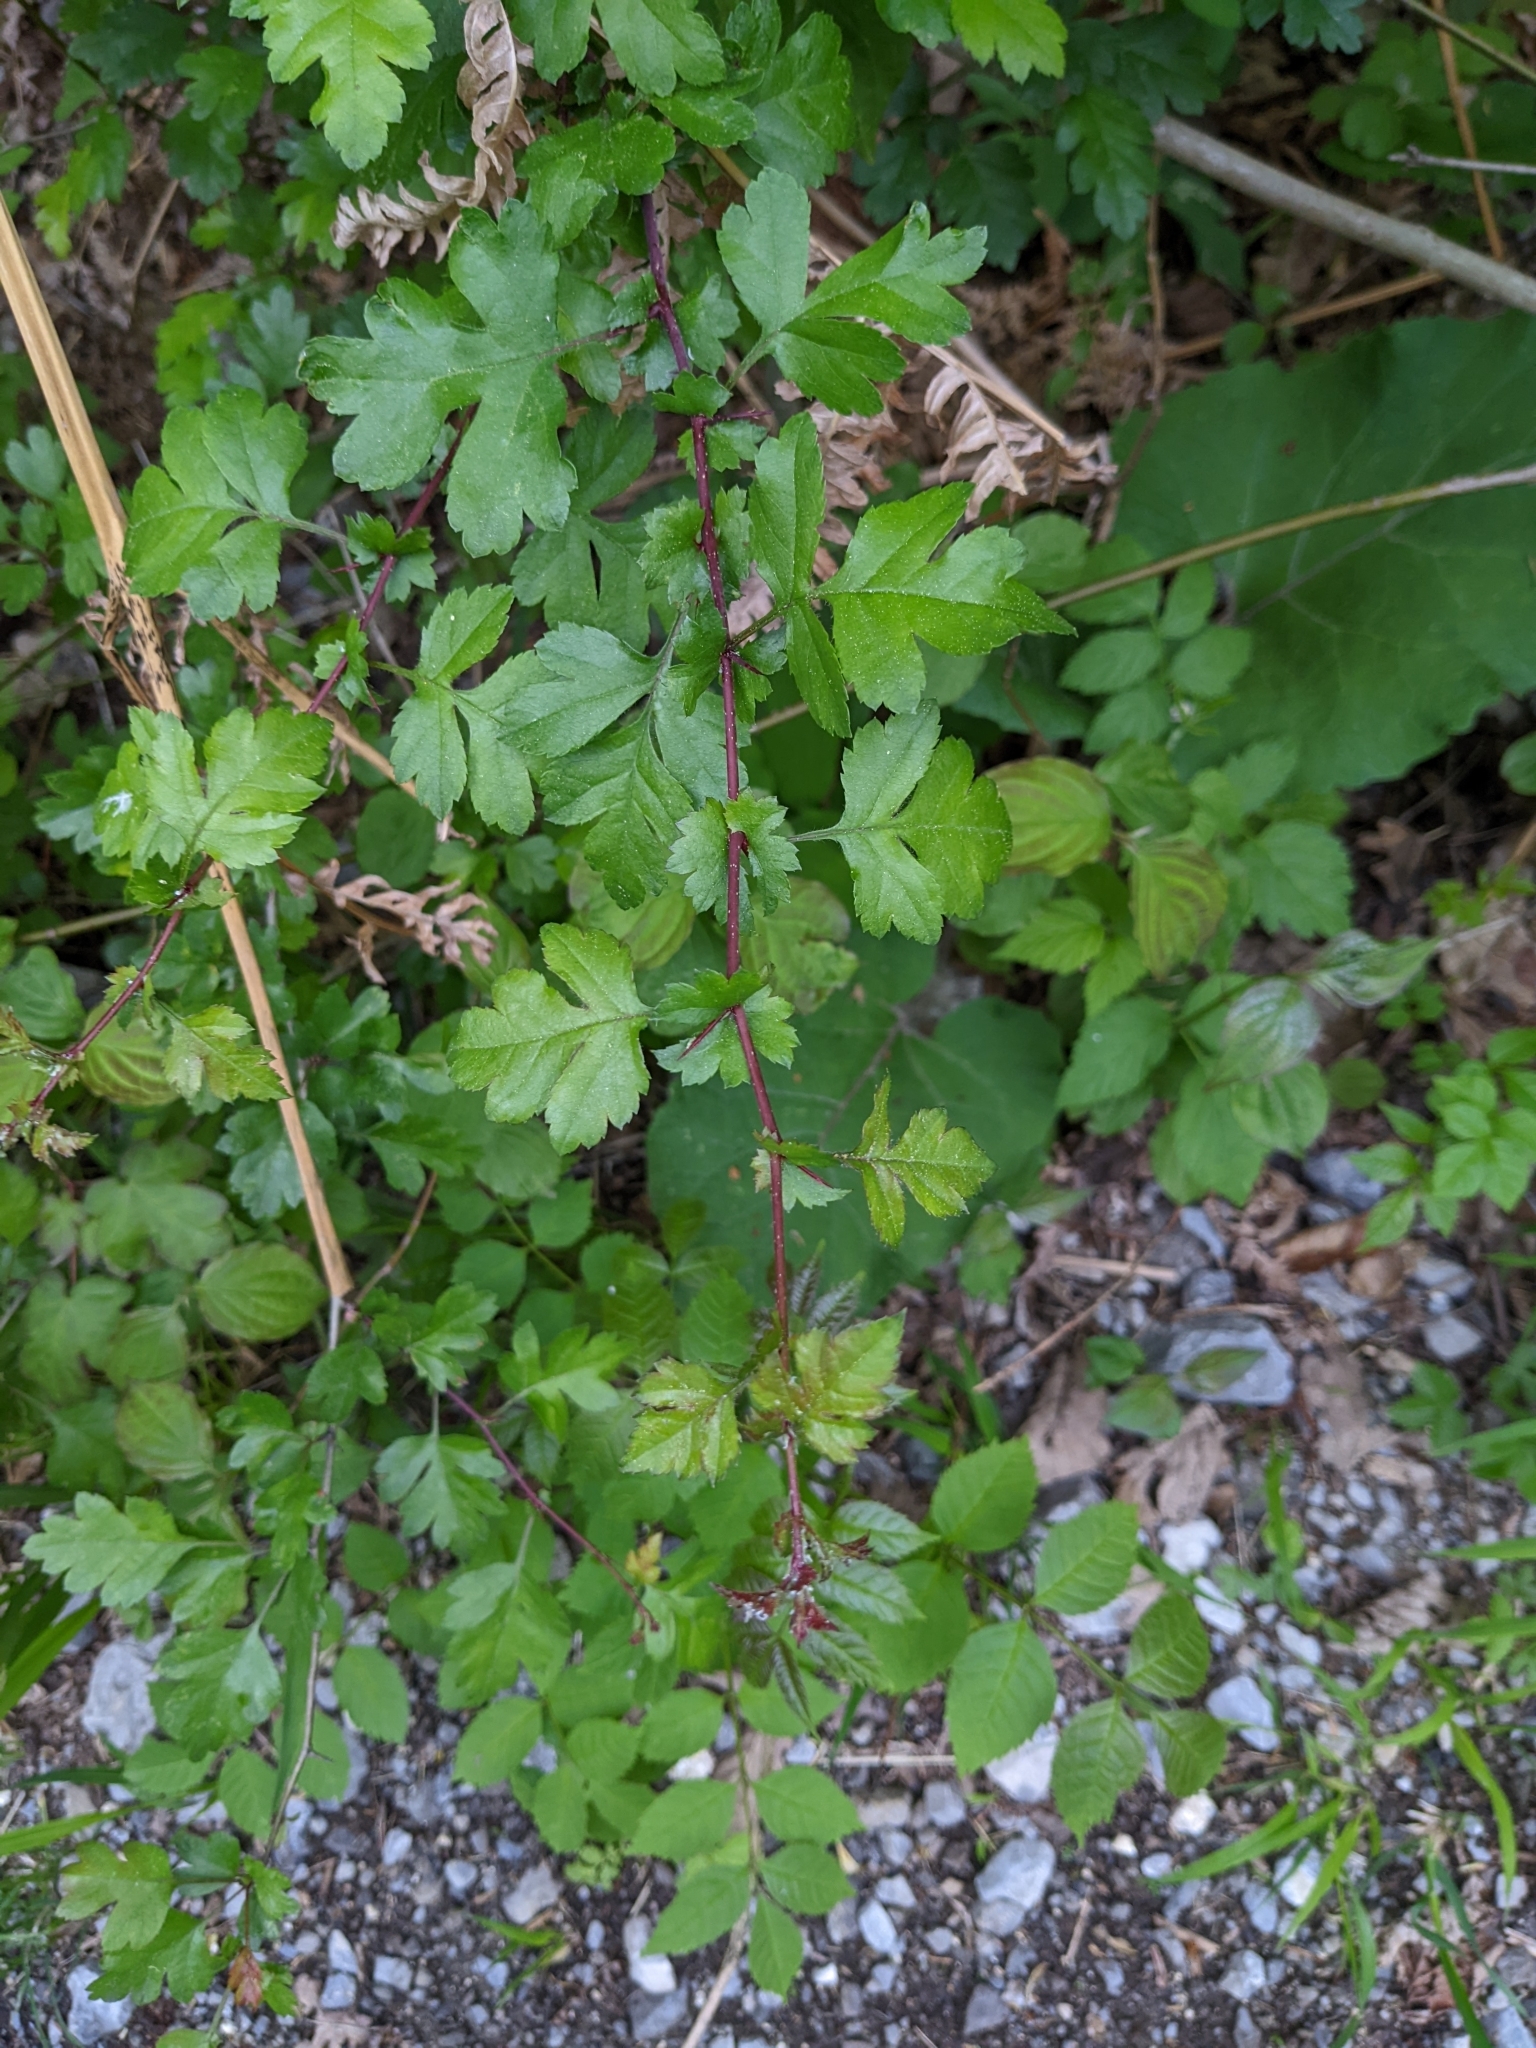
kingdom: Plantae
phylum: Tracheophyta
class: Magnoliopsida
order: Rosales
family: Rosaceae
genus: Crataegus
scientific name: Crataegus monogyna
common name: Hawthorn
